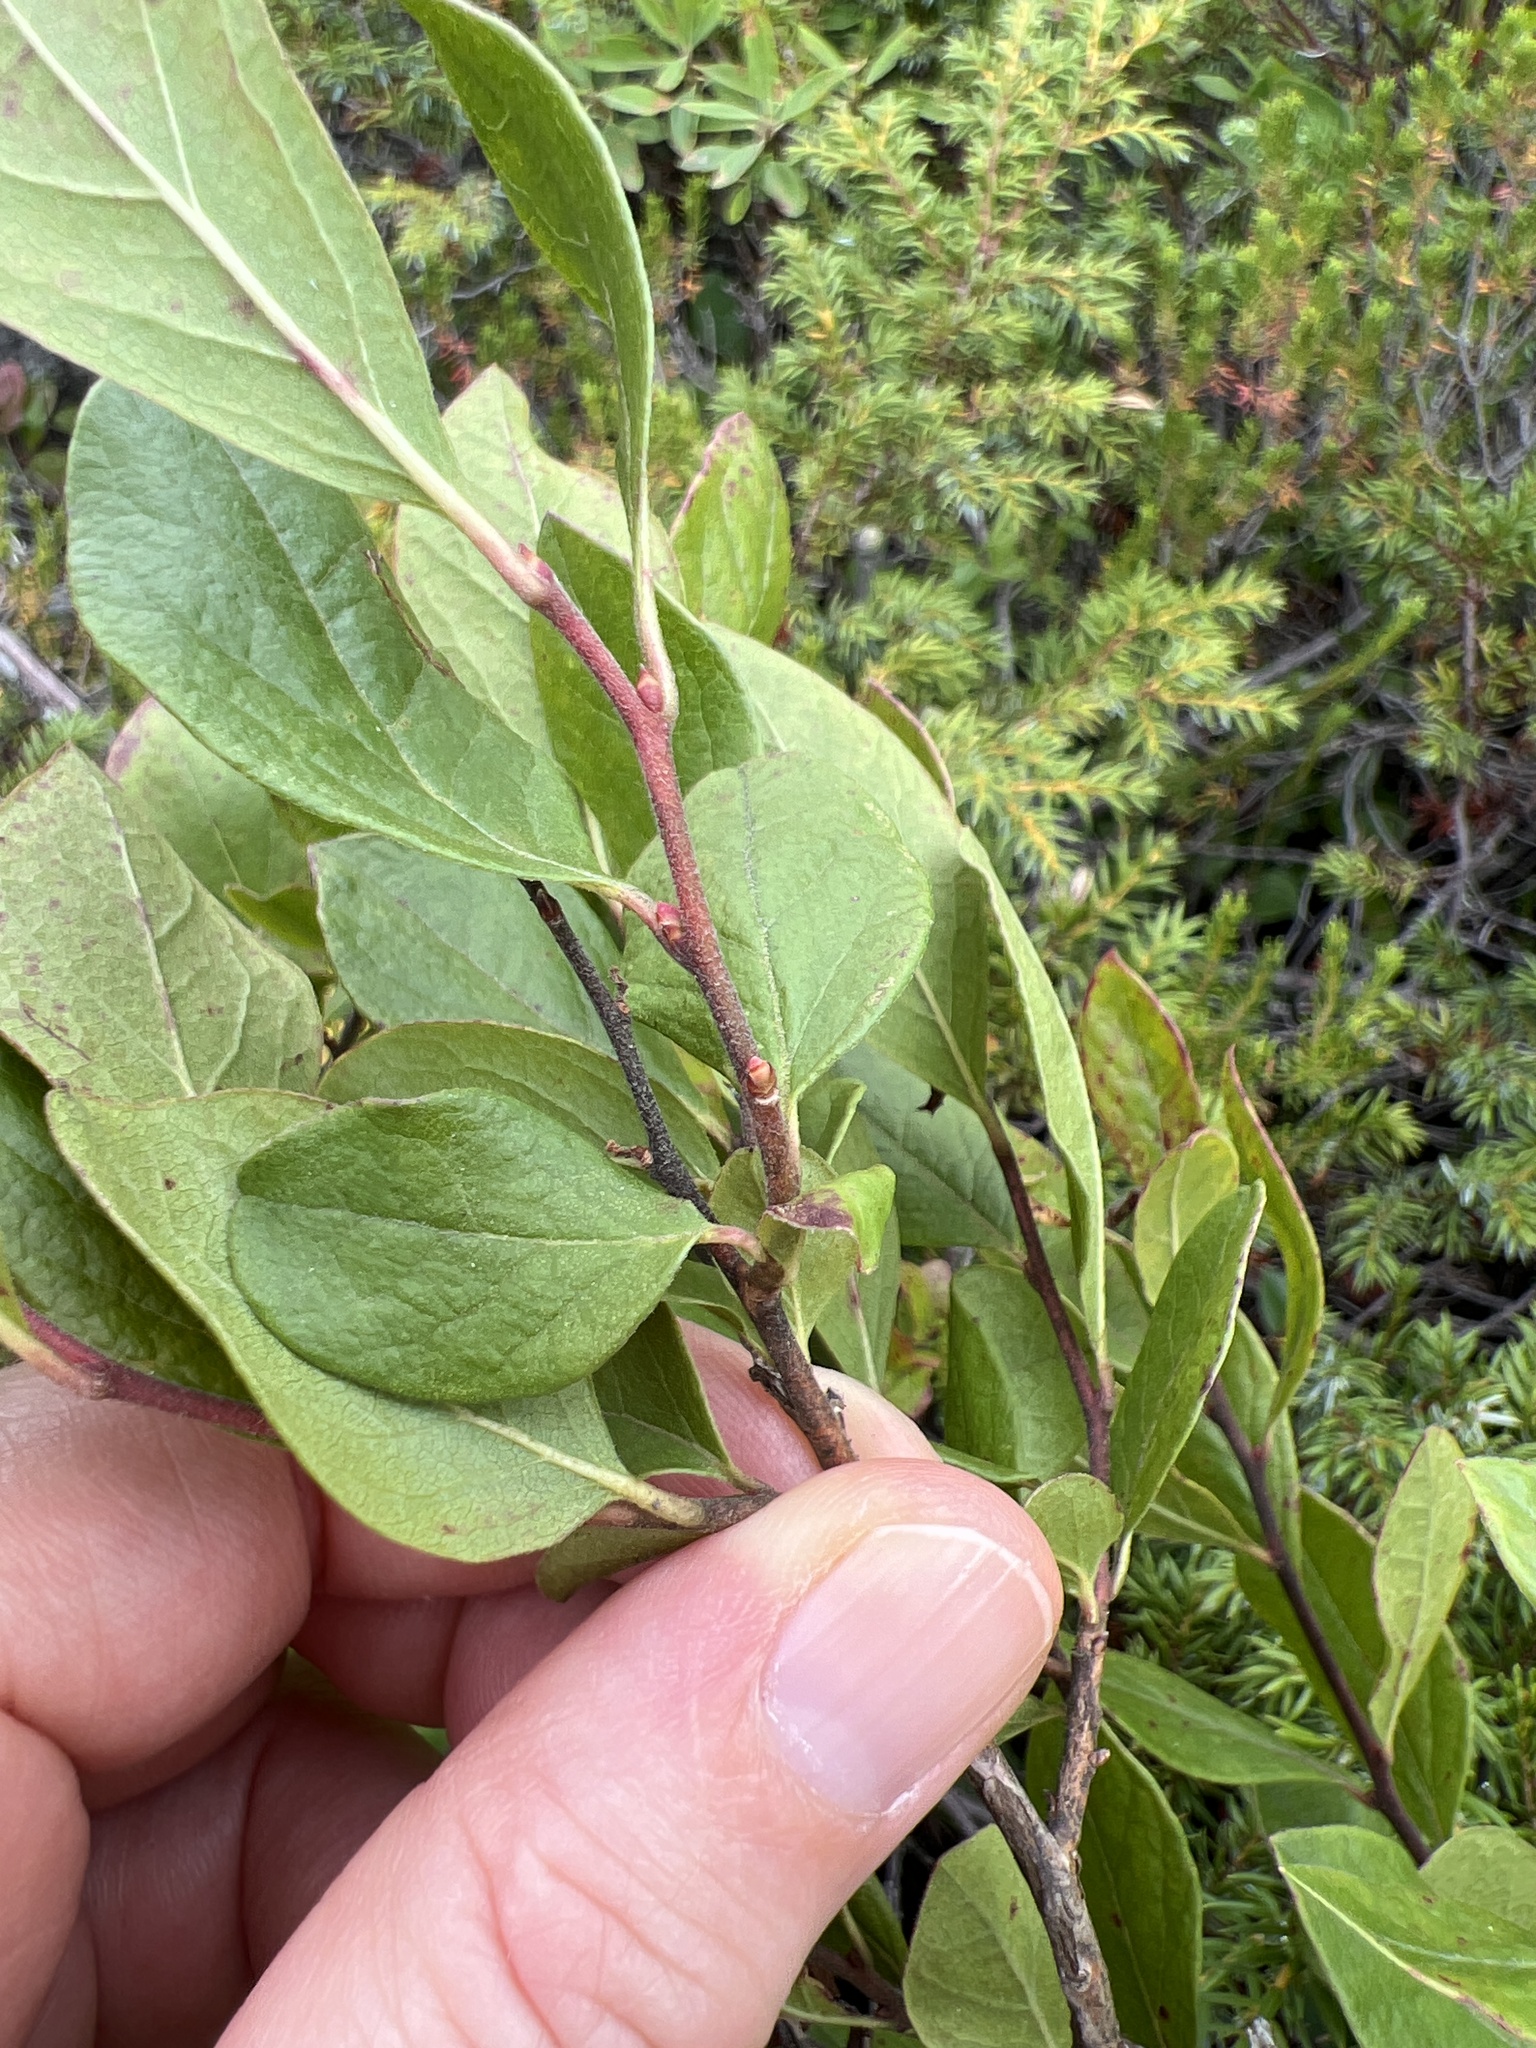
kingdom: Plantae
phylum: Tracheophyta
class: Magnoliopsida
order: Ericales
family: Ericaceae
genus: Kalmia
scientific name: Kalmia angustifolia
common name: Sheep-laurel
